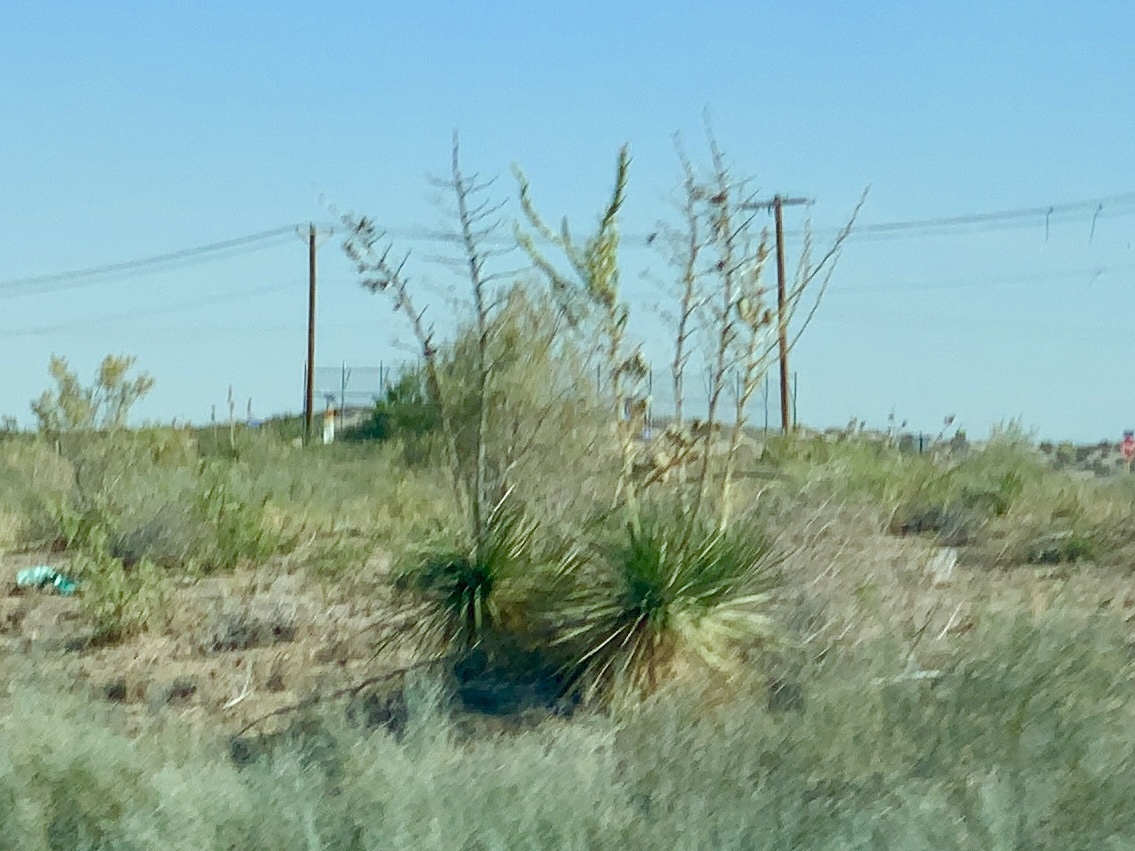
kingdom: Plantae
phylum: Tracheophyta
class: Liliopsida
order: Asparagales
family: Asparagaceae
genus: Yucca
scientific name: Yucca elata
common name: Palmella
